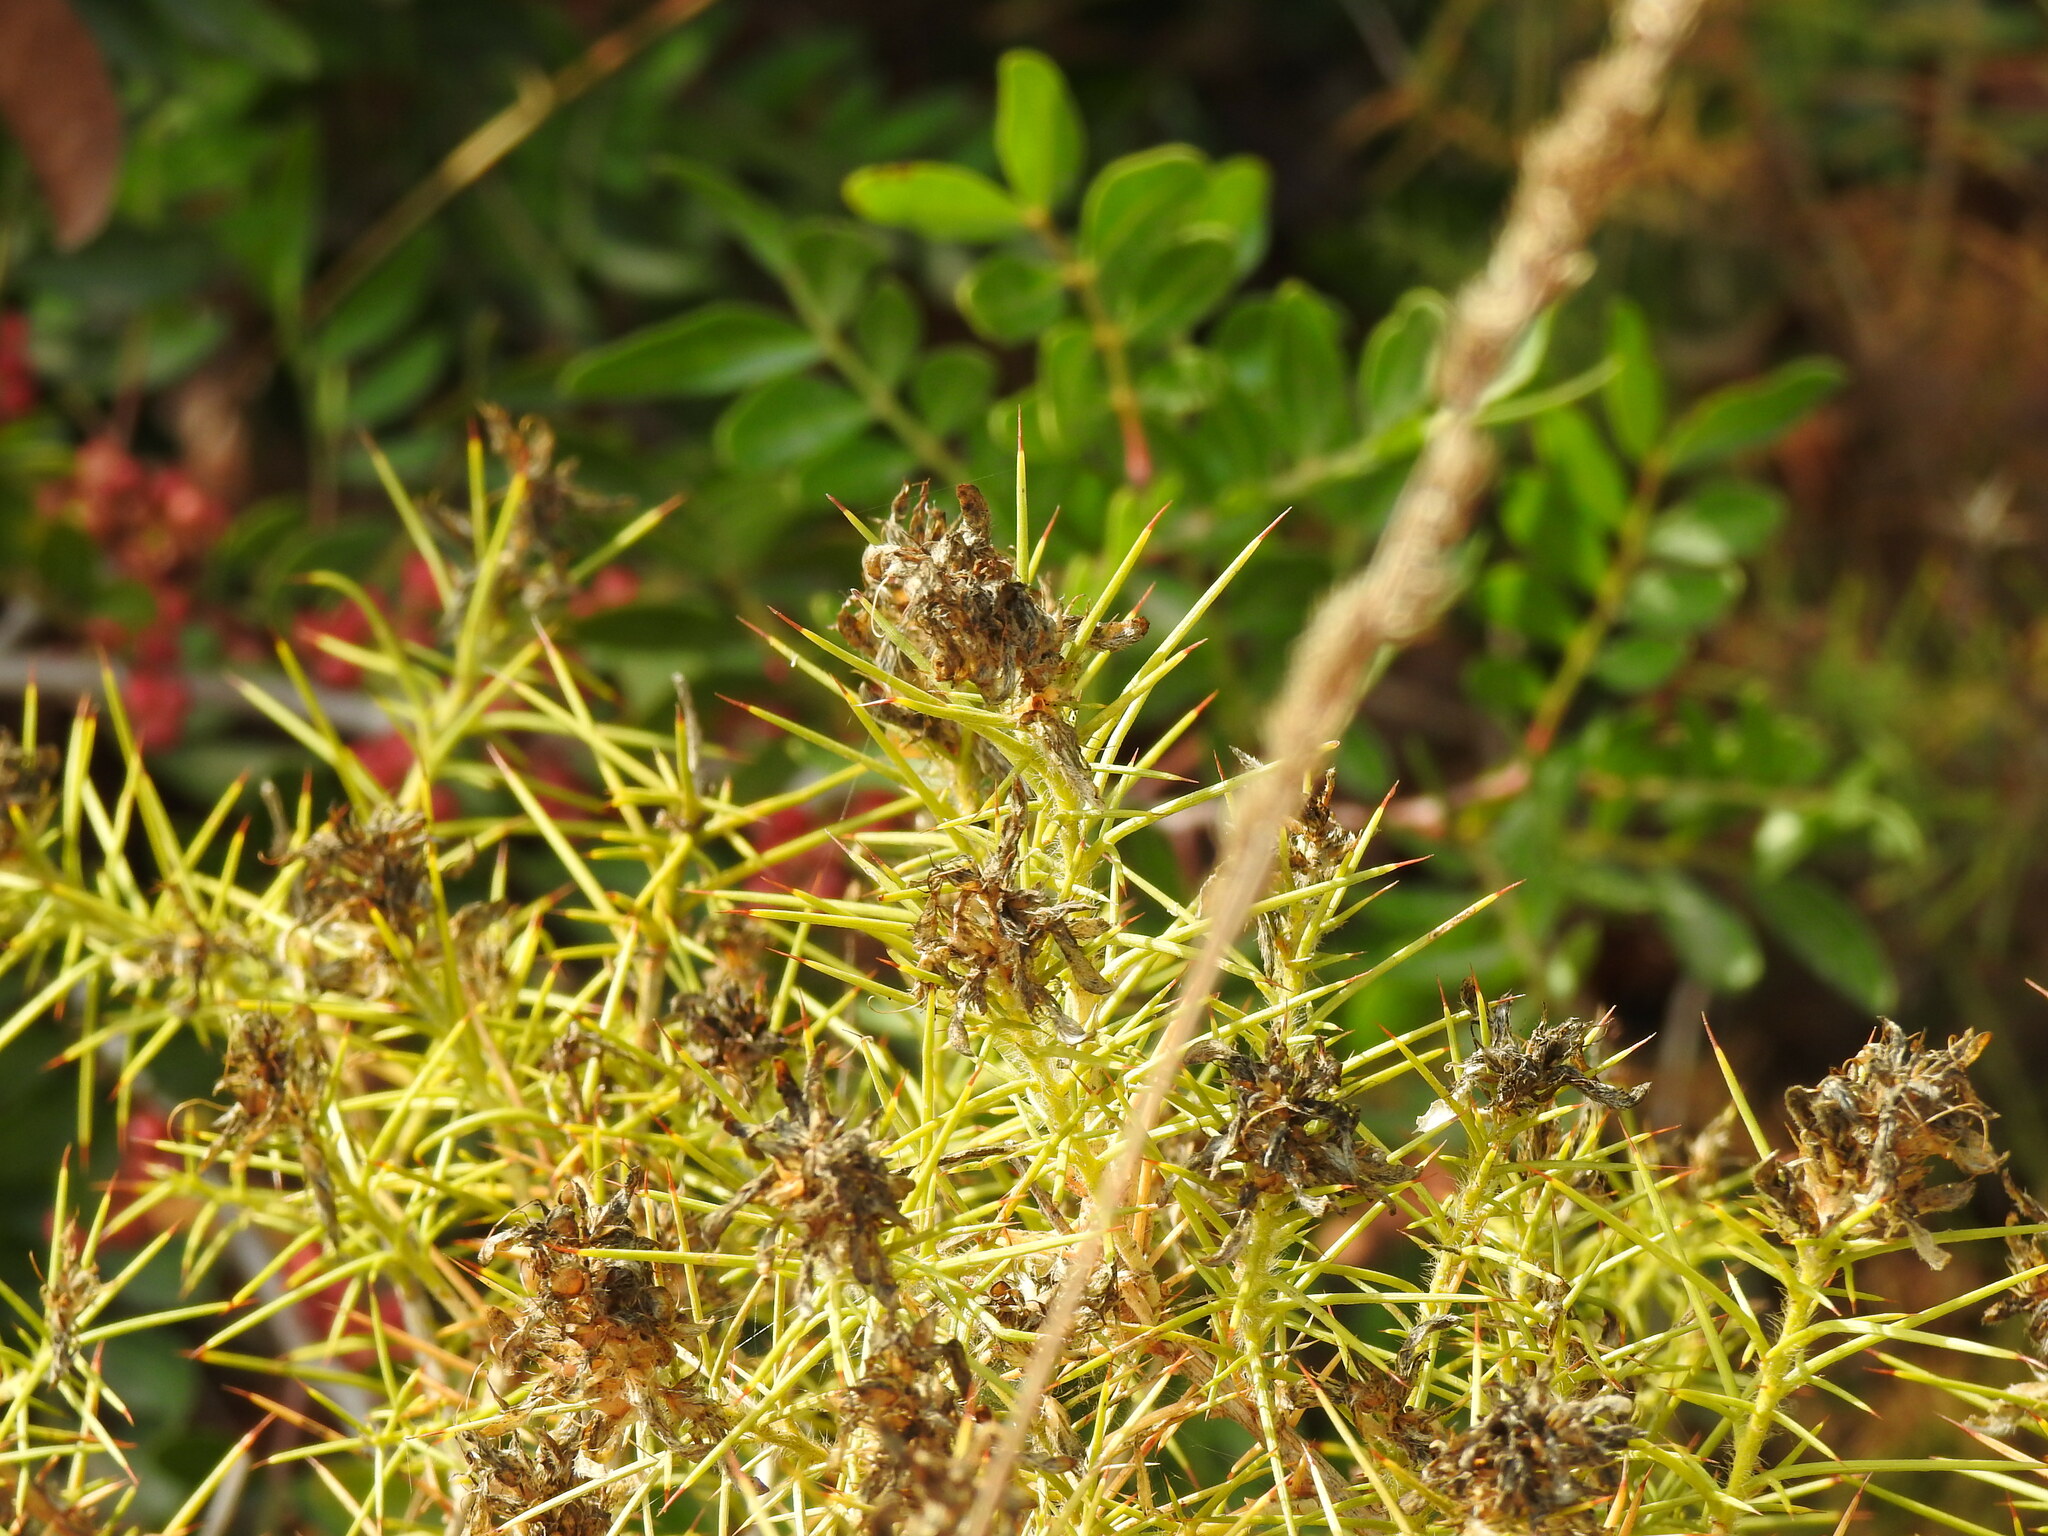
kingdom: Plantae
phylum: Tracheophyta
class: Magnoliopsida
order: Fabales
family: Fabaceae
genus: Genista
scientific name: Genista hirsuta
